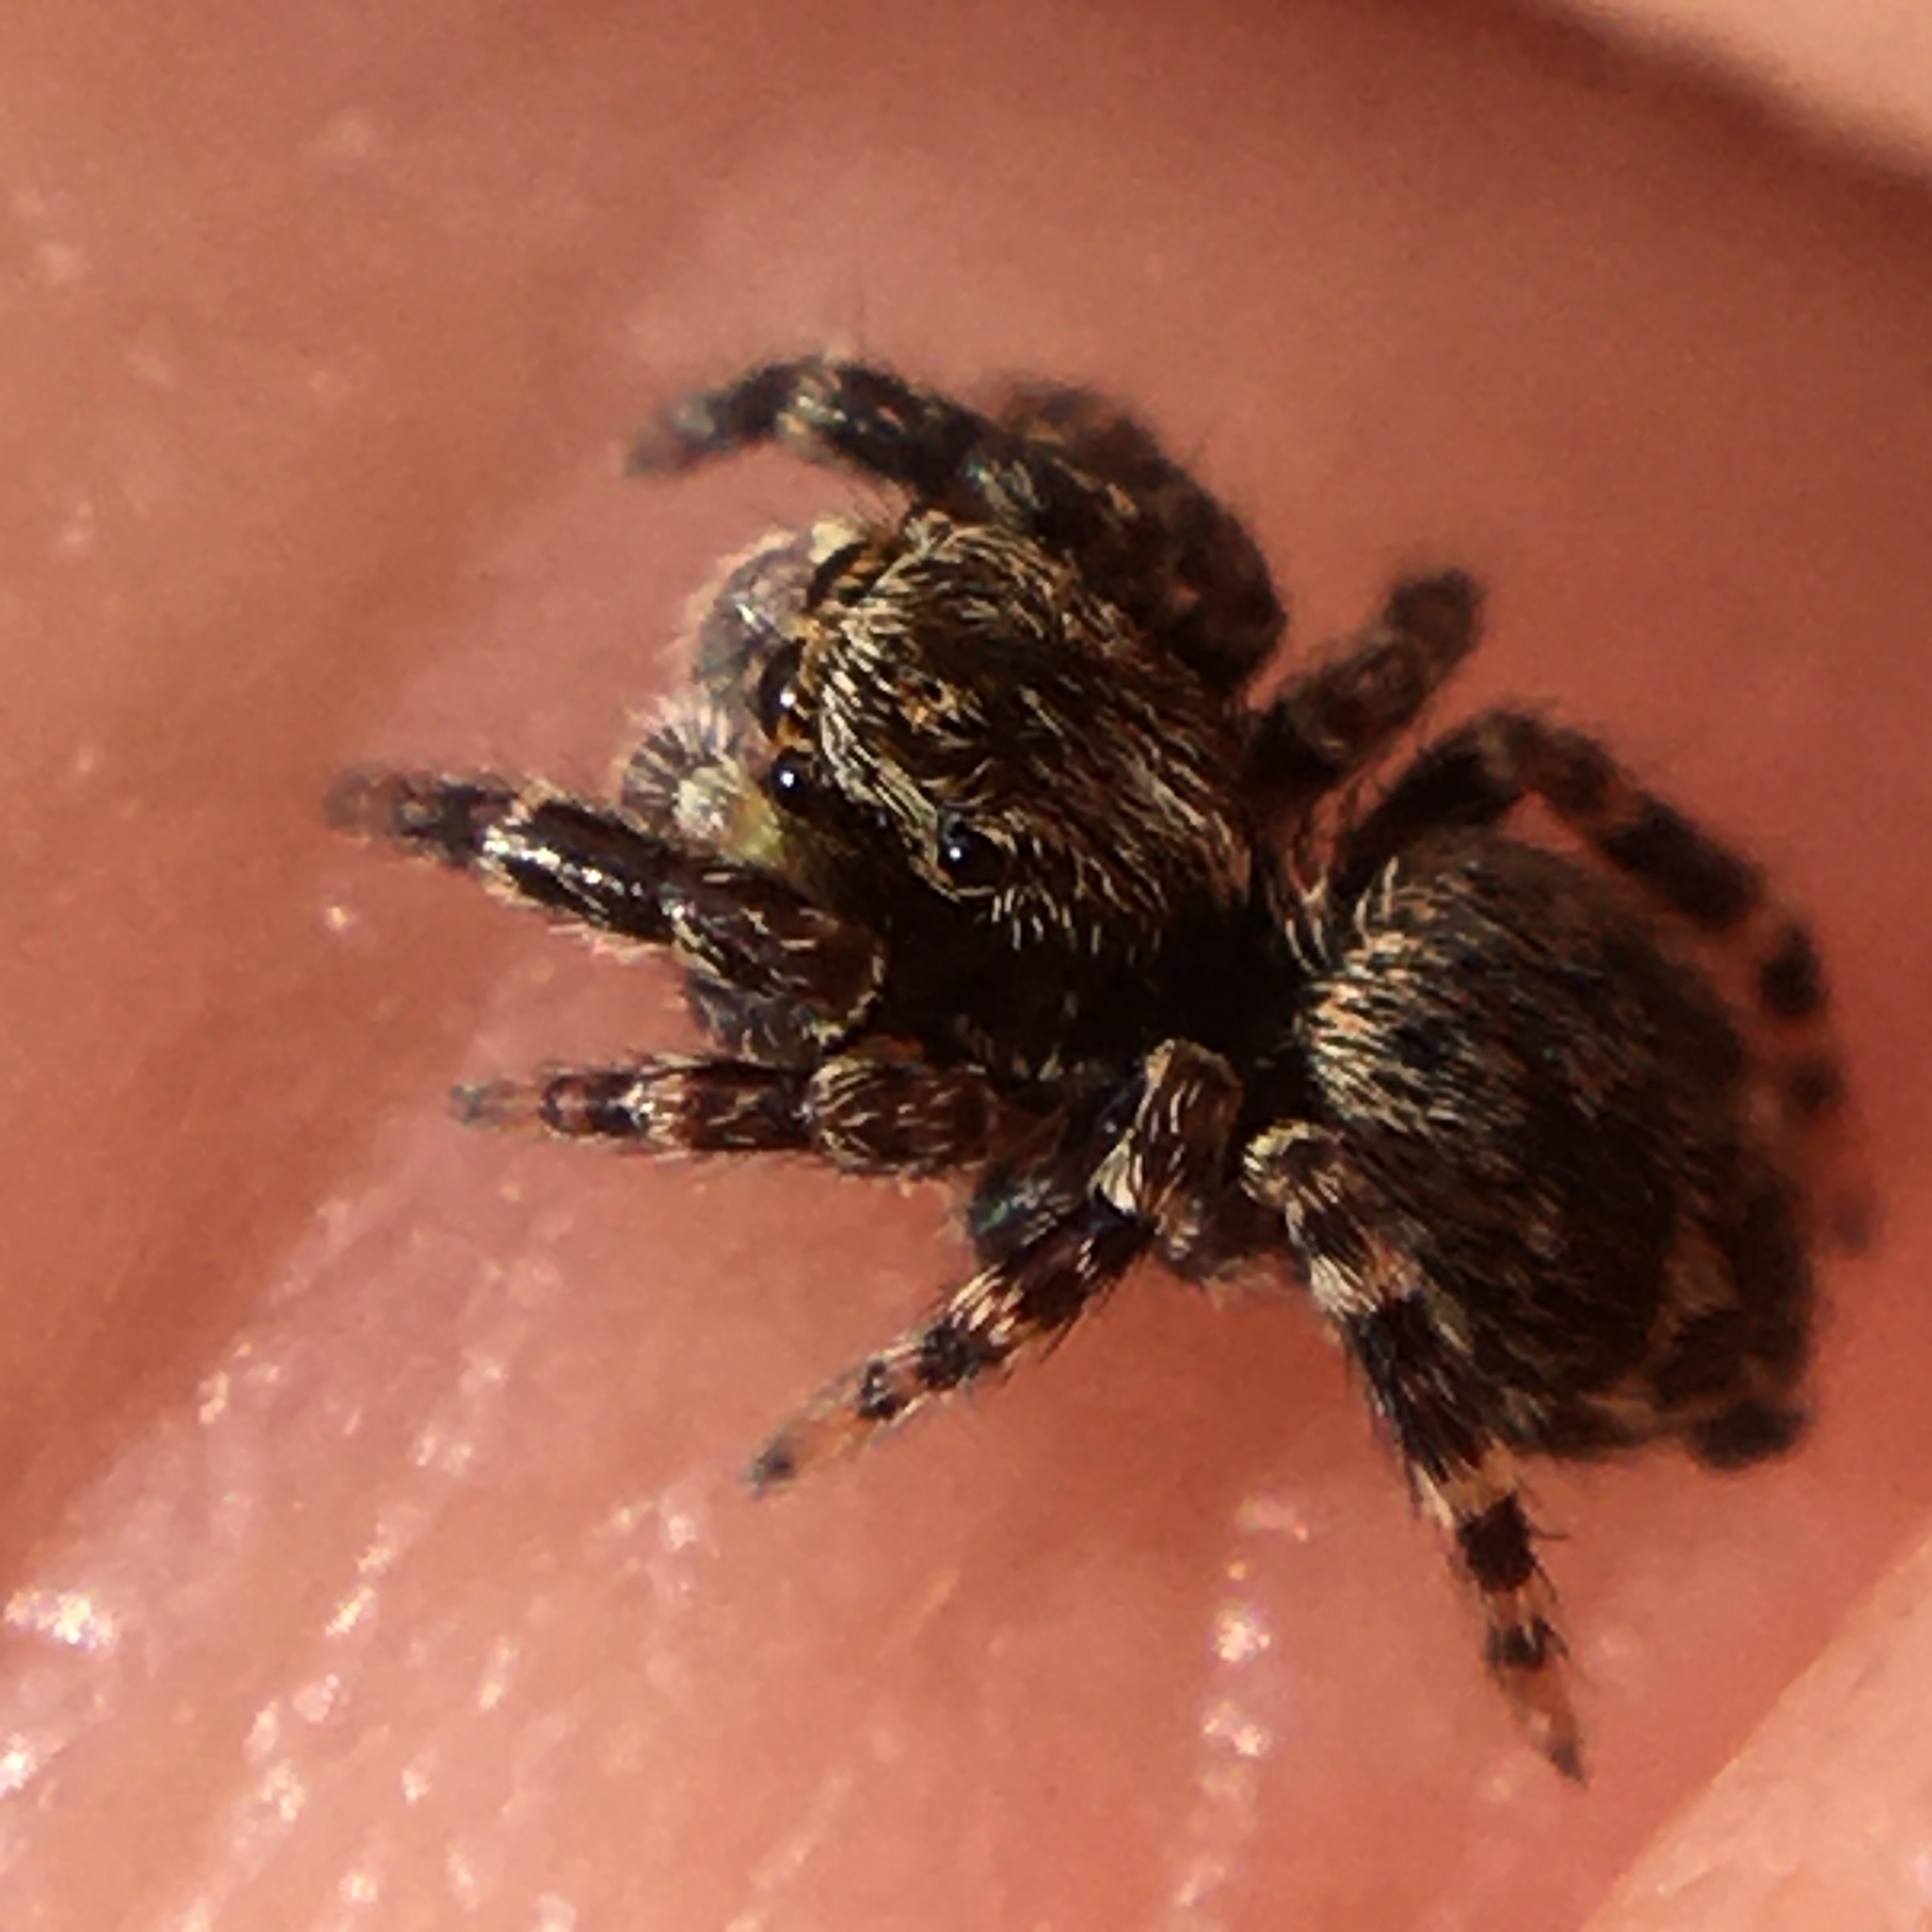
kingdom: Animalia
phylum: Arthropoda
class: Arachnida
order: Araneae
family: Salticidae
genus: Pseudeuophrys
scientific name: Pseudeuophrys erratica
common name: Jumping spider
